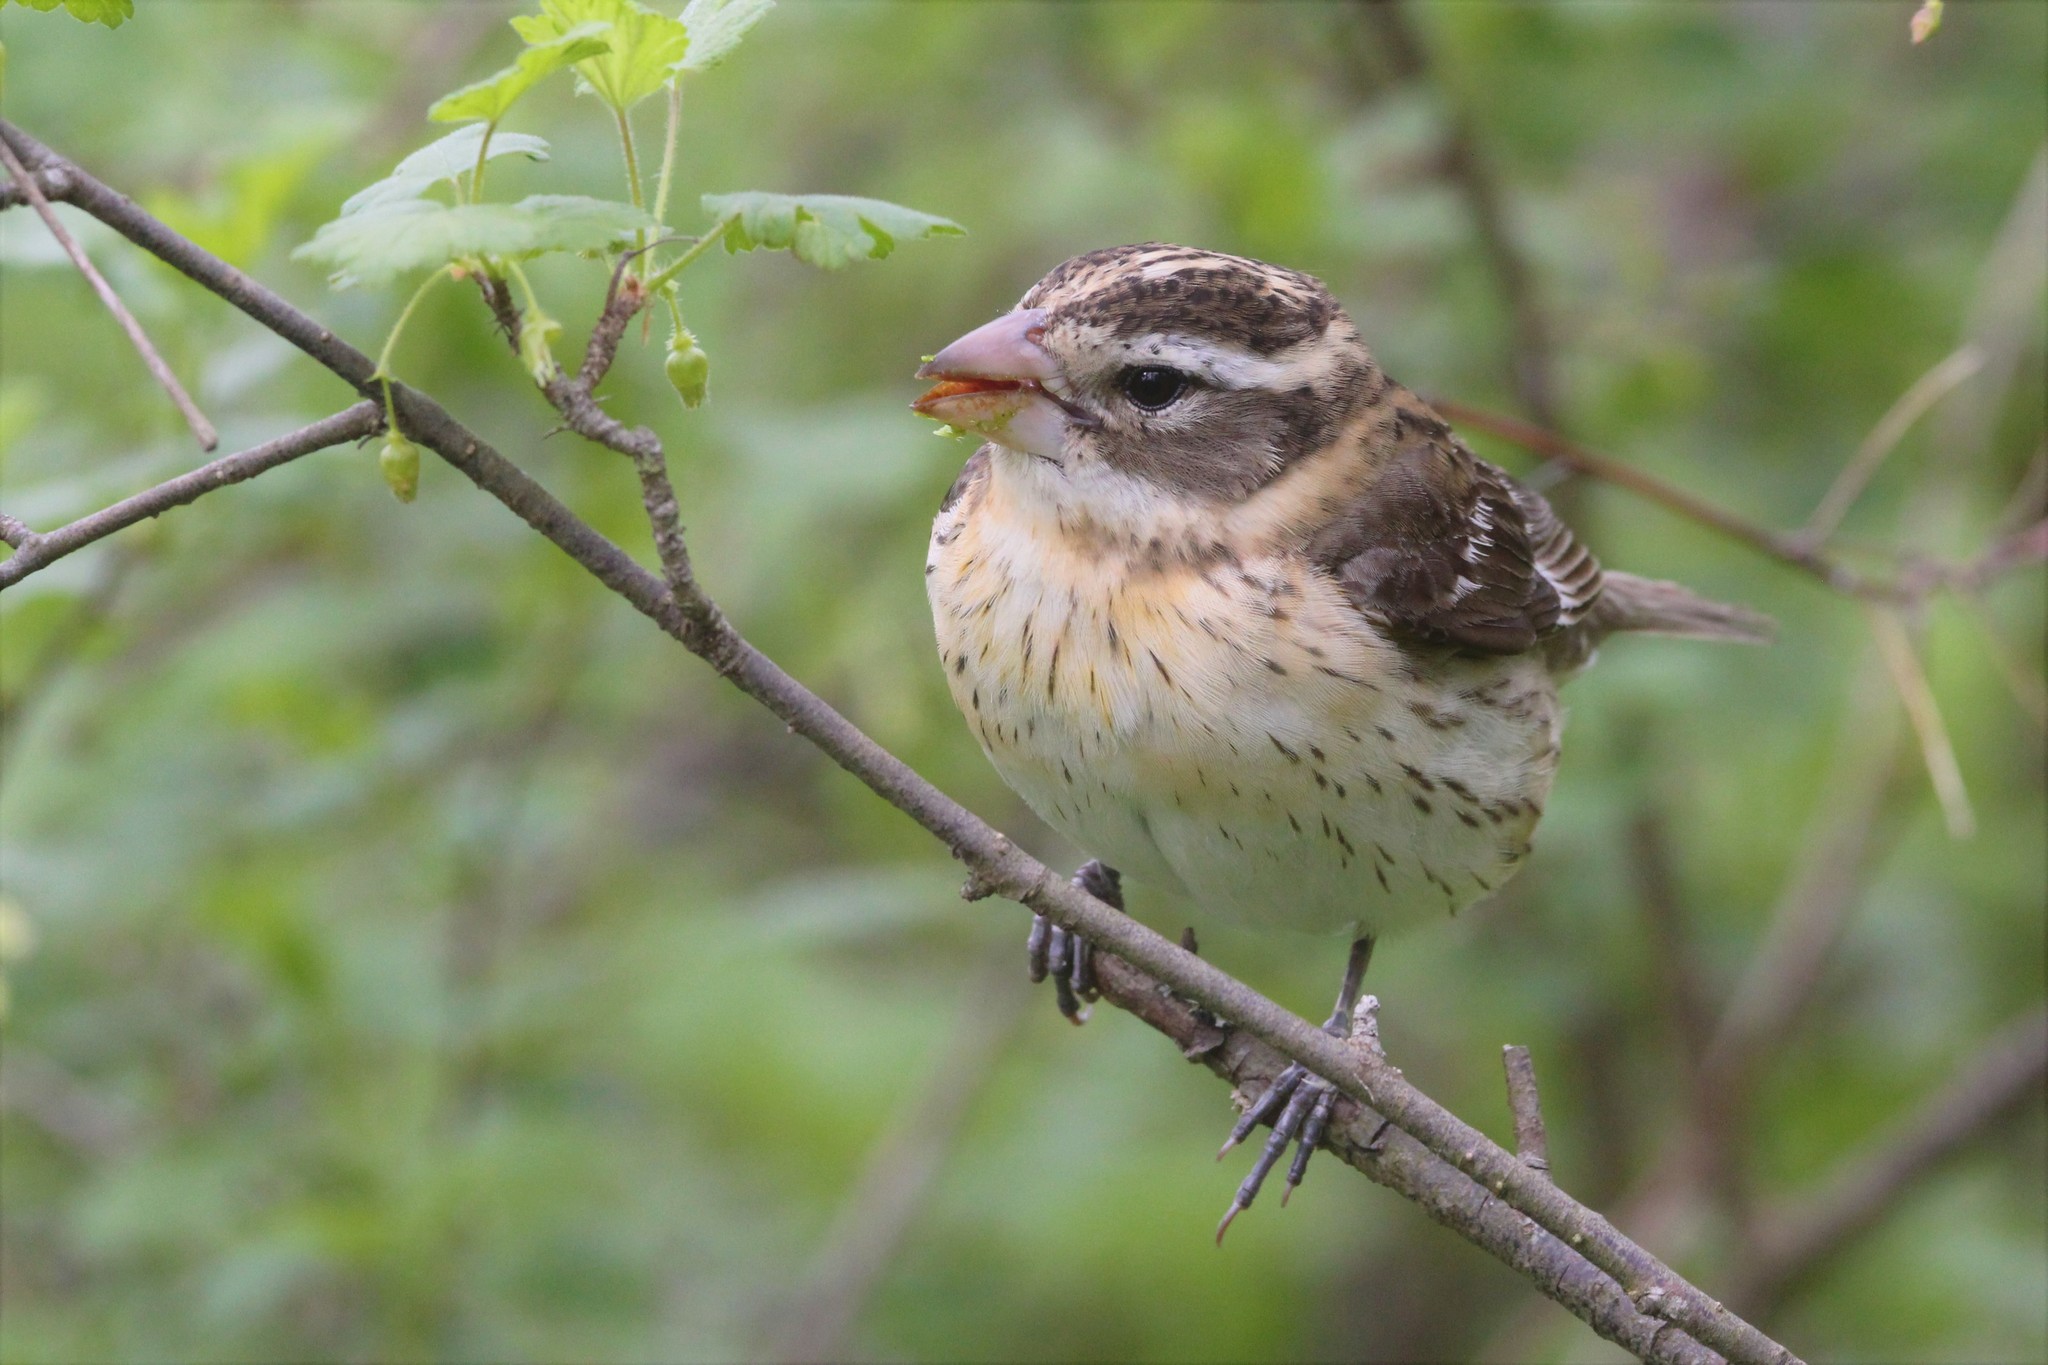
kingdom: Animalia
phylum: Chordata
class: Aves
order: Passeriformes
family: Cardinalidae
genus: Pheucticus
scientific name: Pheucticus ludovicianus
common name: Rose-breasted grosbeak
